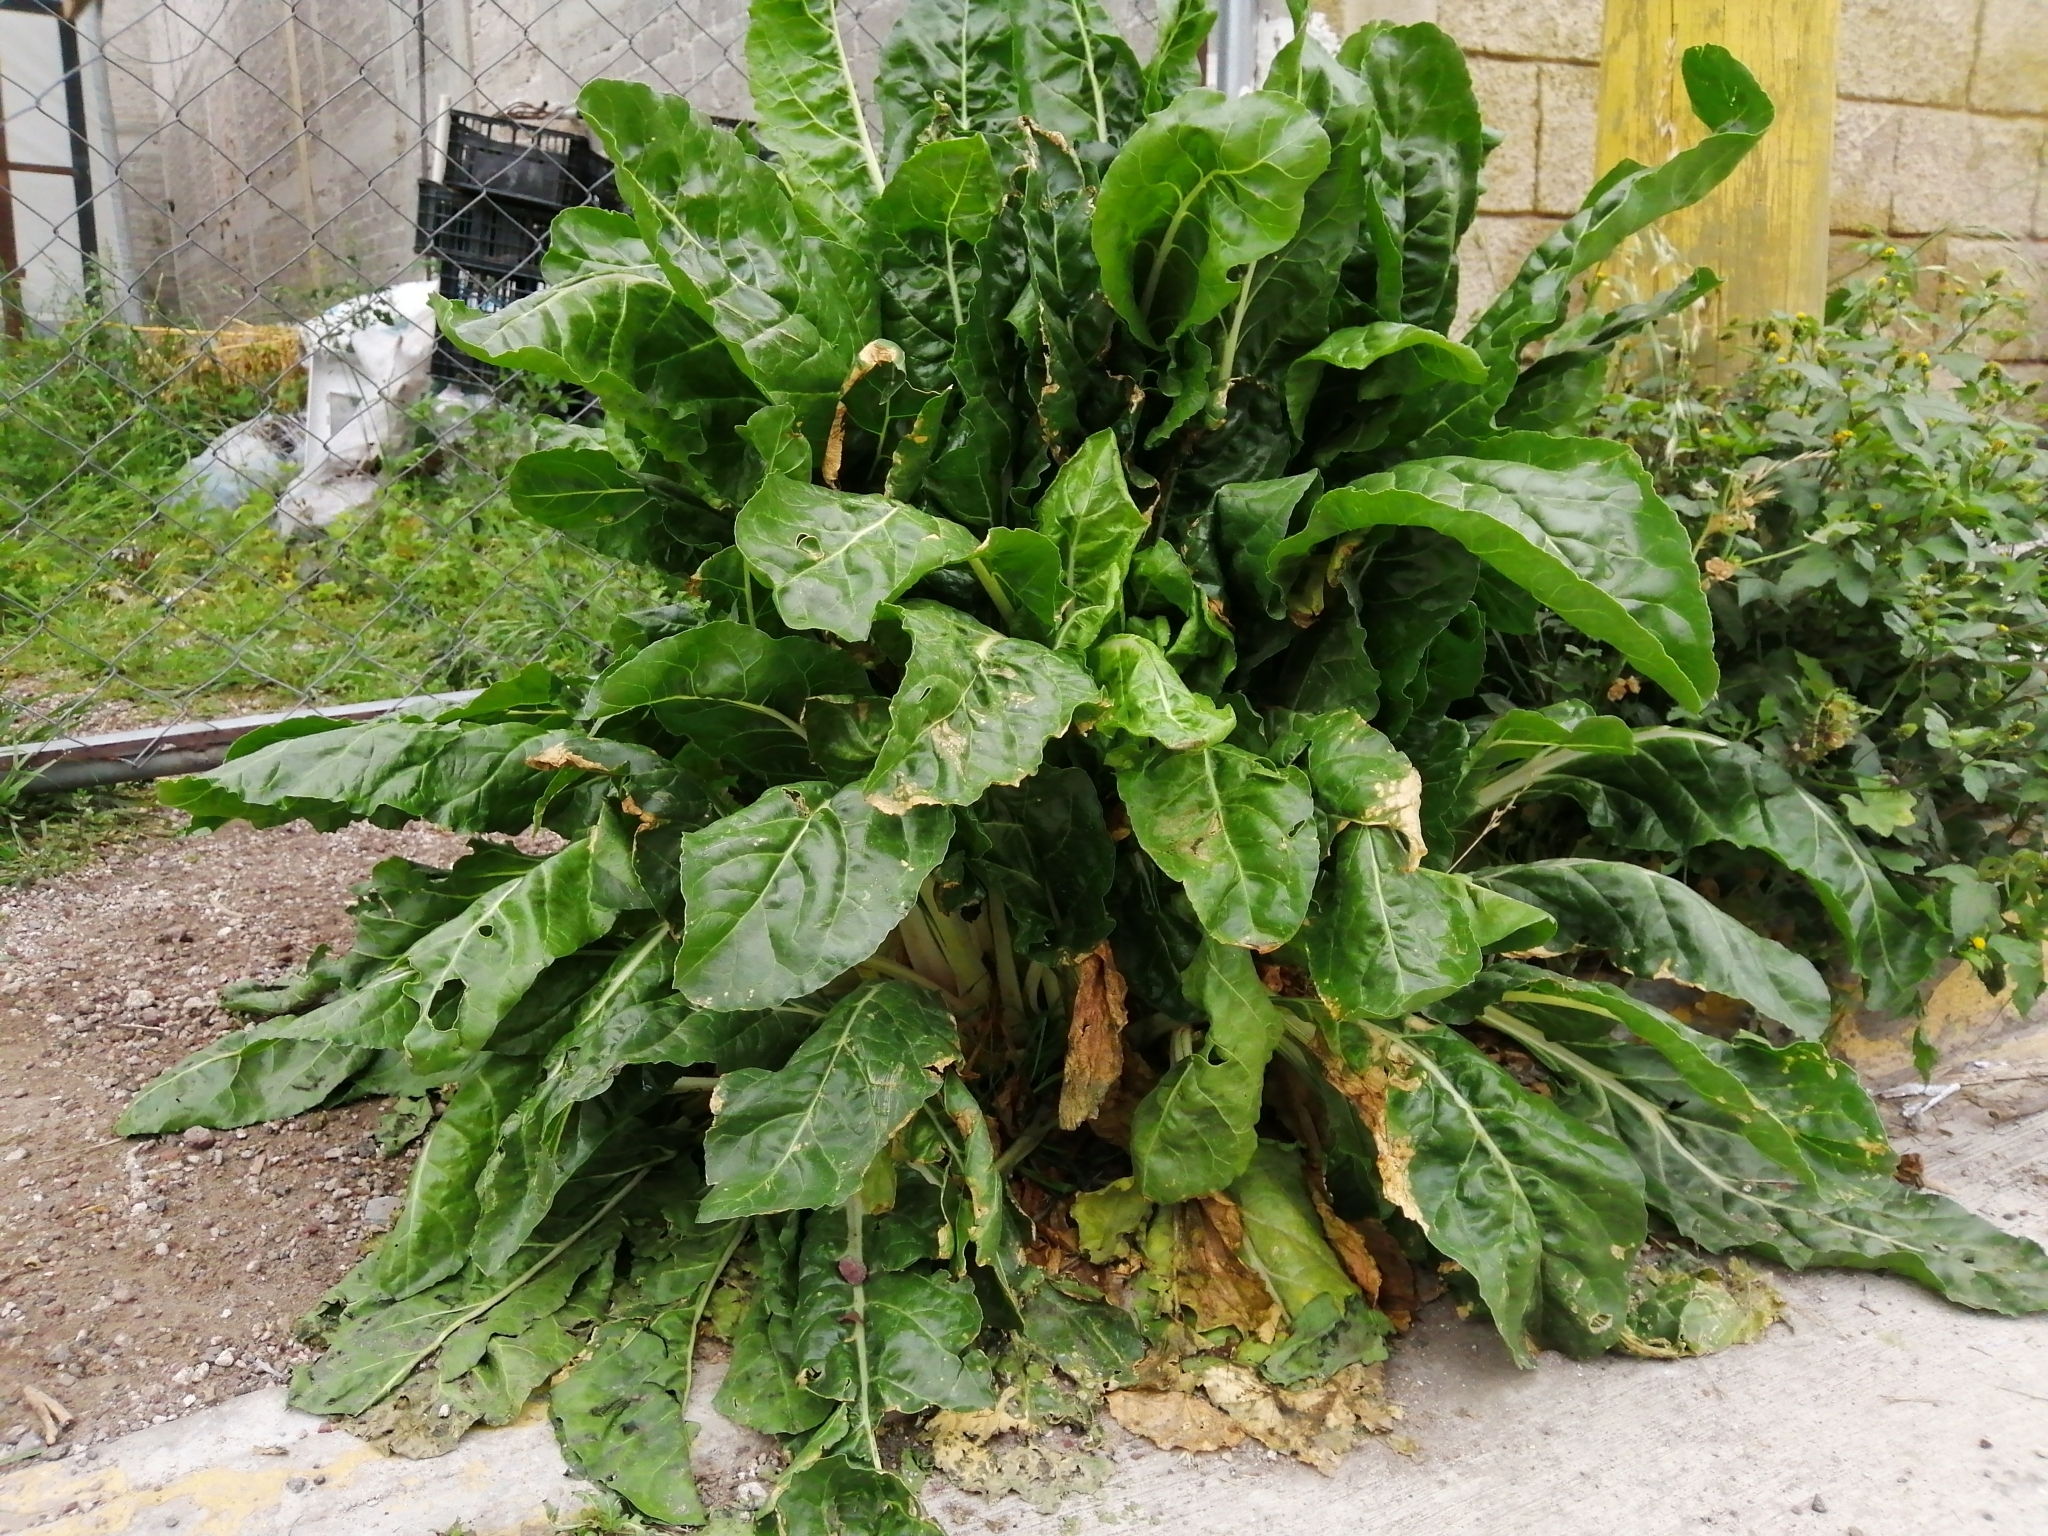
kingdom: Plantae
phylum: Tracheophyta
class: Magnoliopsida
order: Caryophyllales
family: Amaranthaceae
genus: Beta
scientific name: Beta vulgaris
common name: Beet
